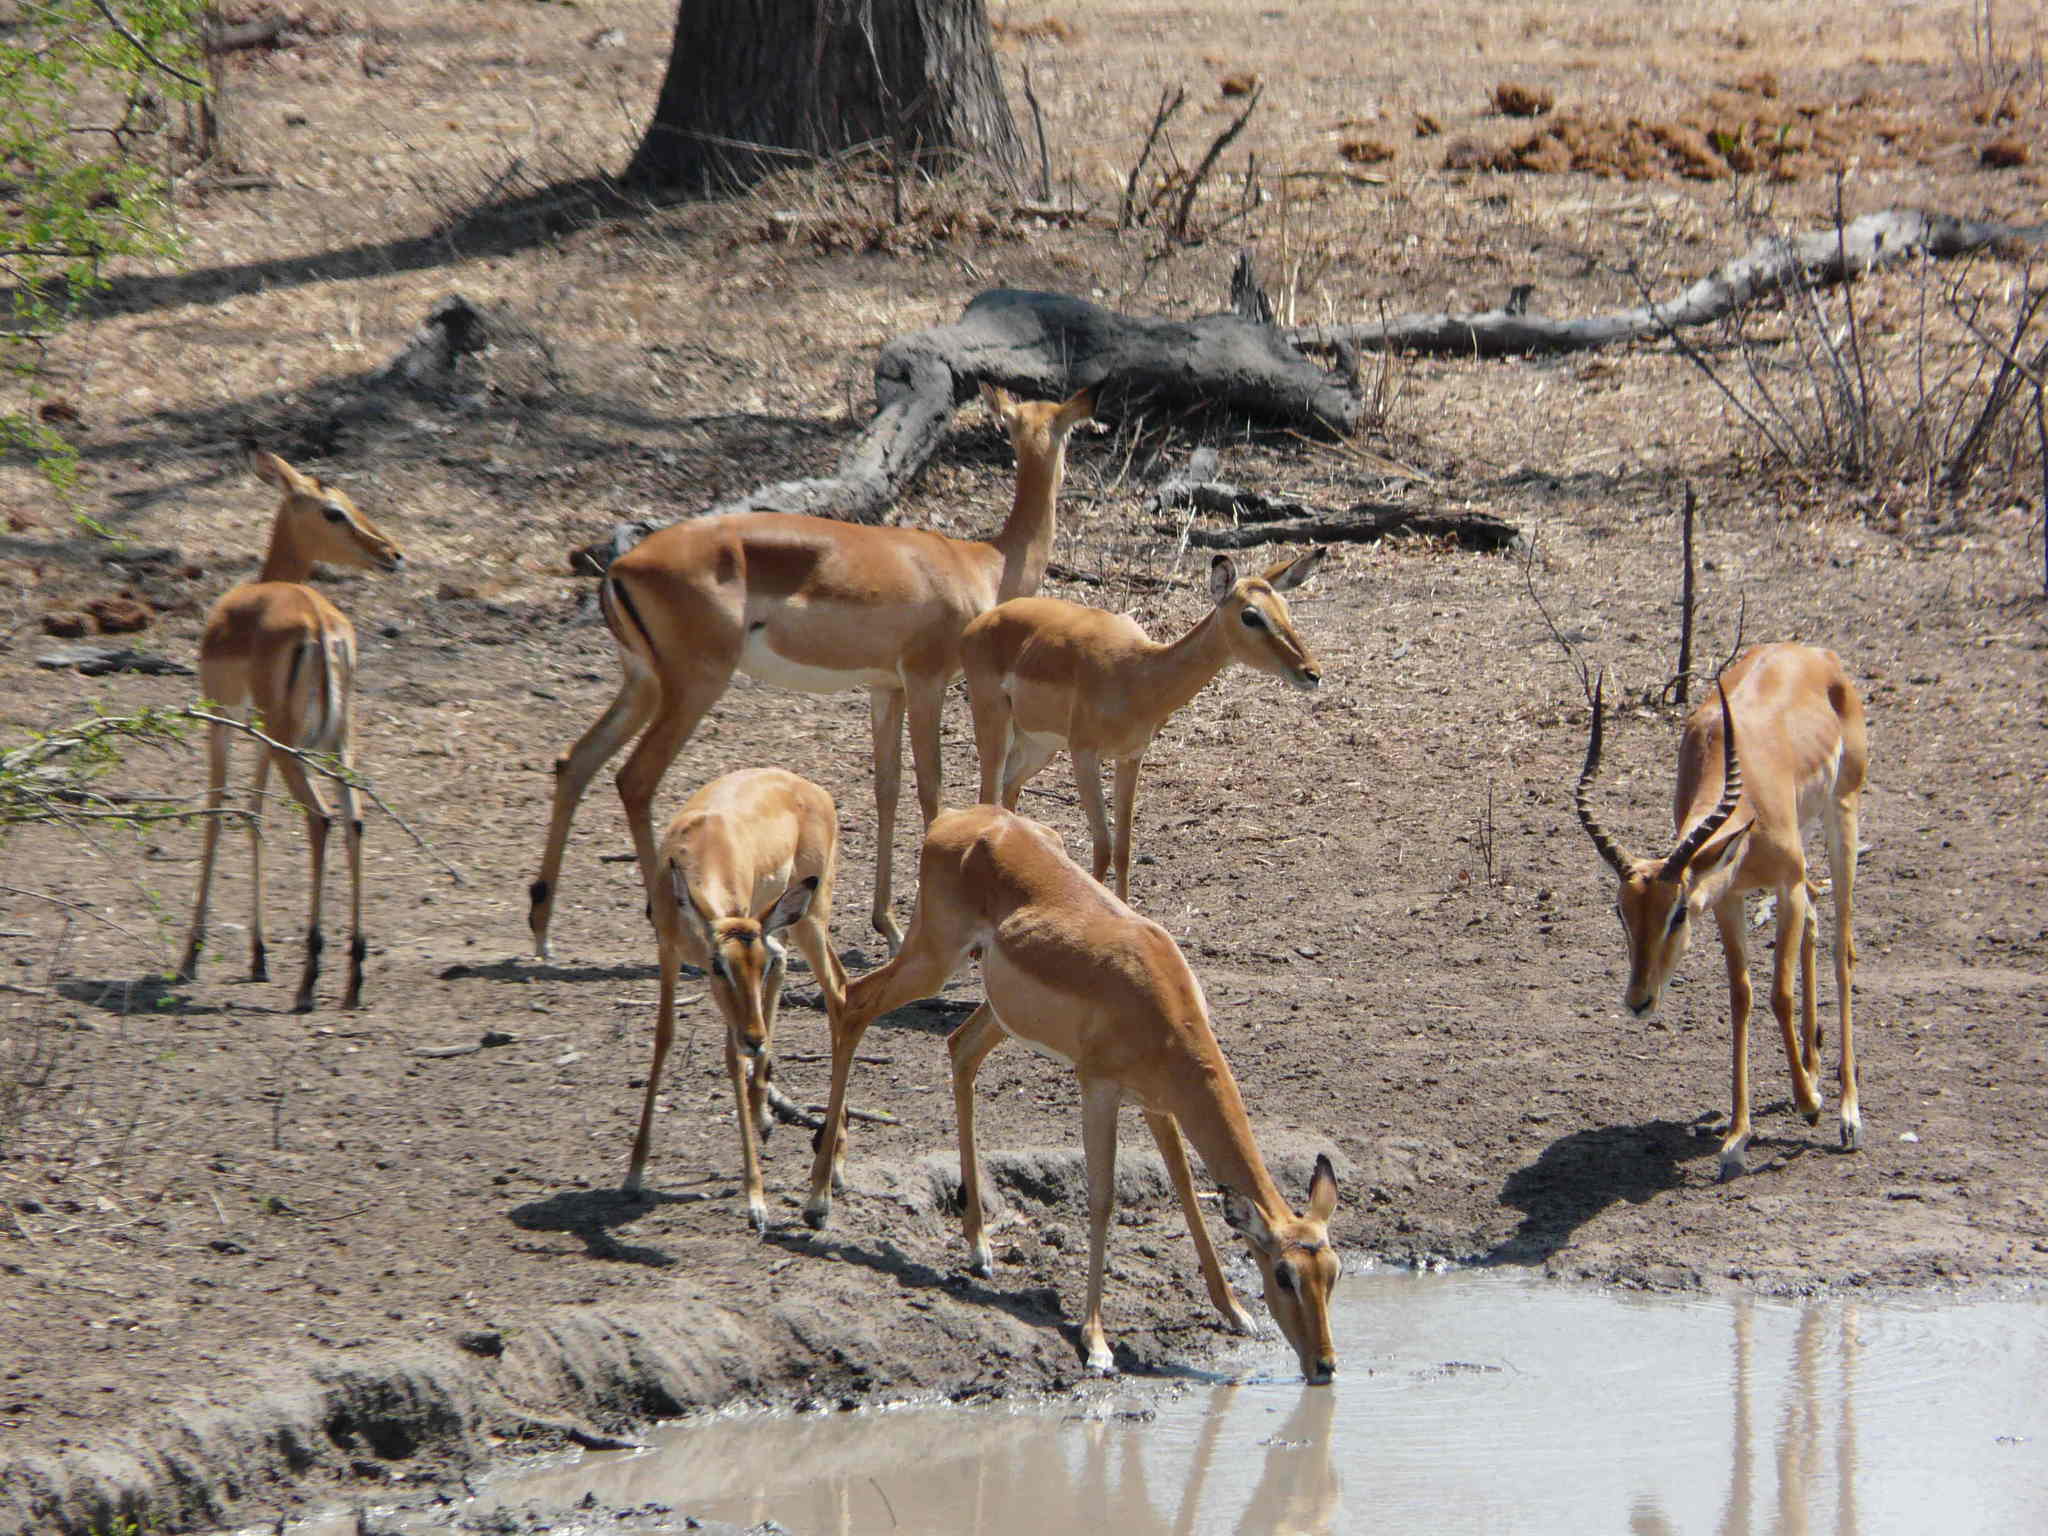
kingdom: Animalia
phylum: Chordata
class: Mammalia
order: Artiodactyla
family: Bovidae
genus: Aepyceros
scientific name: Aepyceros melampus
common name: Impala
